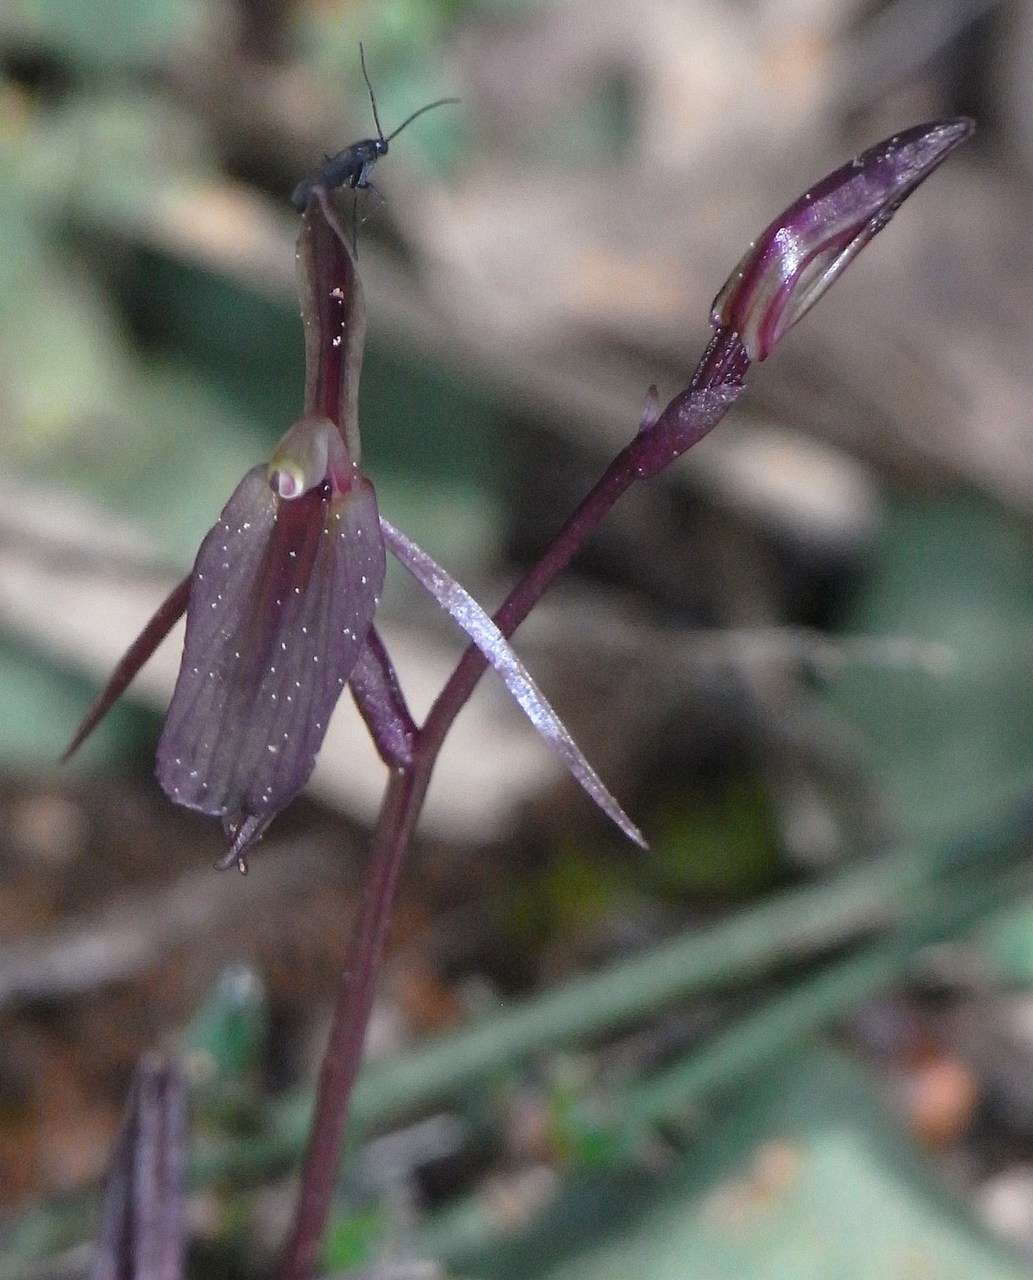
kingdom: Plantae
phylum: Tracheophyta
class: Liliopsida
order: Asparagales
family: Orchidaceae
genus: Cyrtostylis
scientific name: Cyrtostylis reniformis
